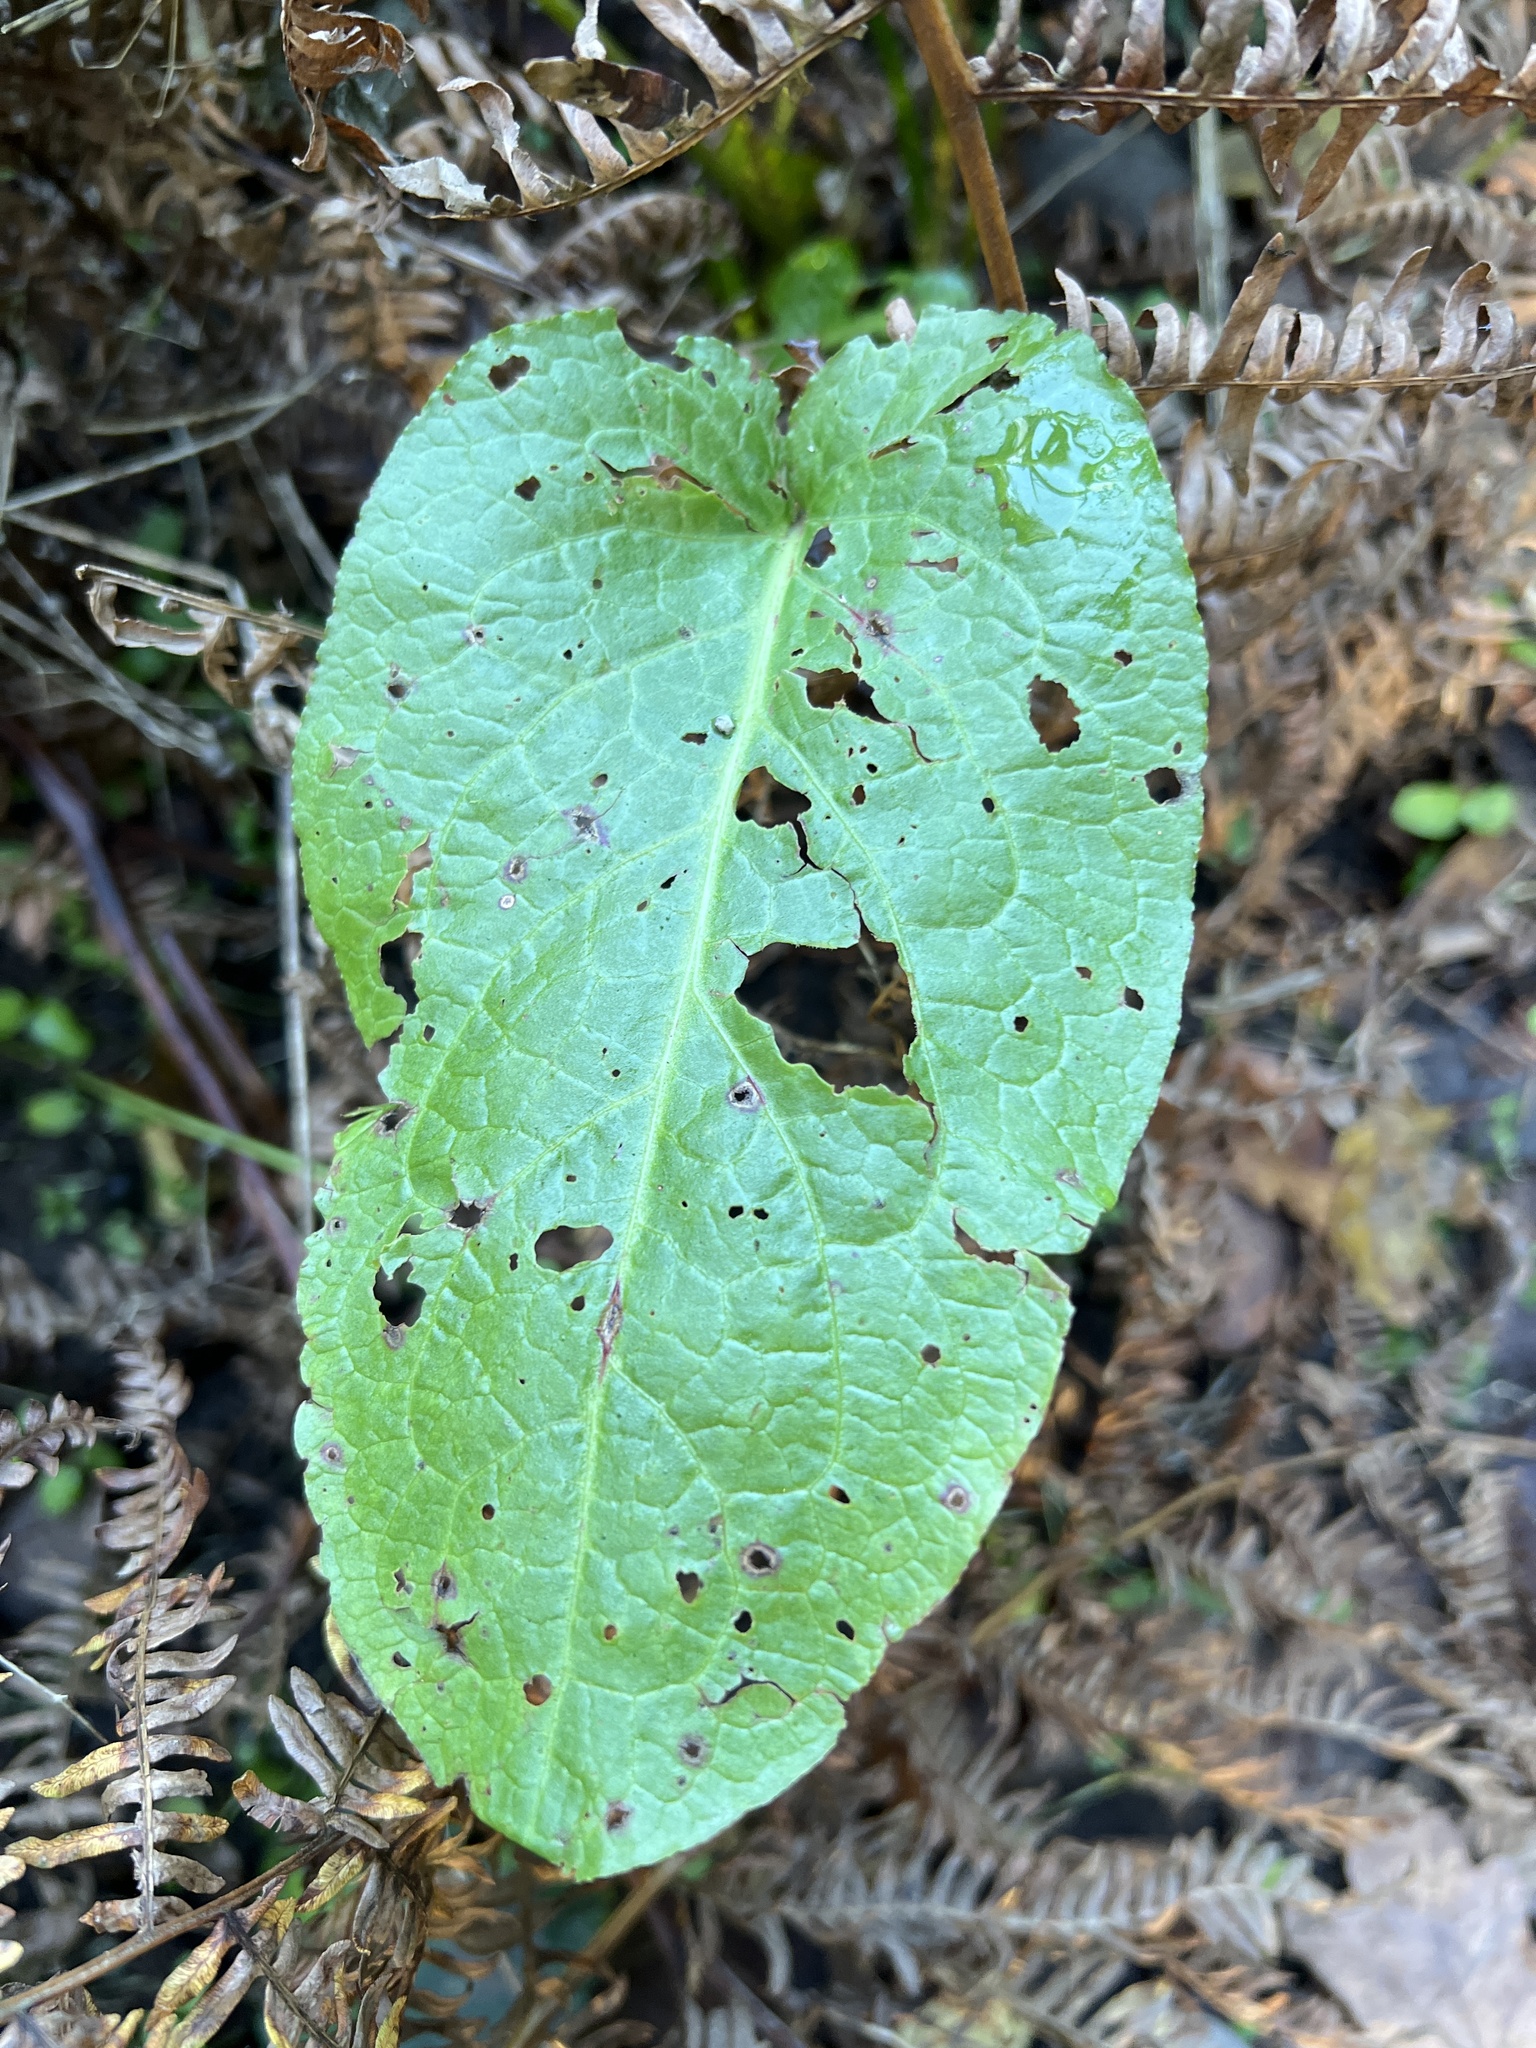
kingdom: Plantae
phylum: Tracheophyta
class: Magnoliopsida
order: Caryophyllales
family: Polygonaceae
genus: Rumex
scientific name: Rumex obtusifolius
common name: Bitter dock
